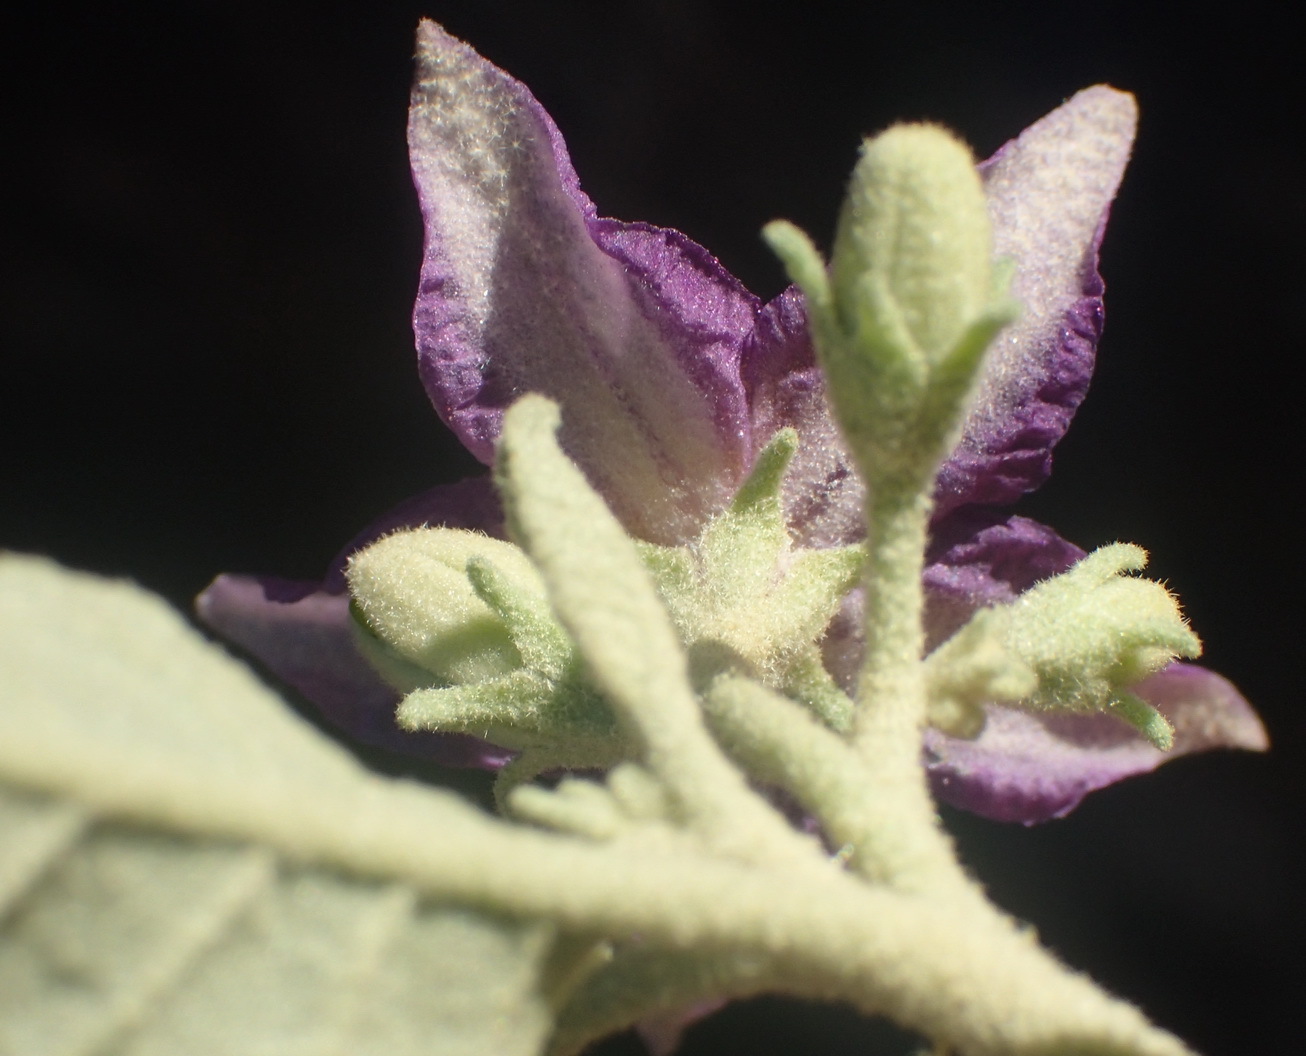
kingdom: Plantae
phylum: Tracheophyta
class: Magnoliopsida
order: Solanales
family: Solanaceae
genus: Solanum
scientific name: Solanum burchellii
